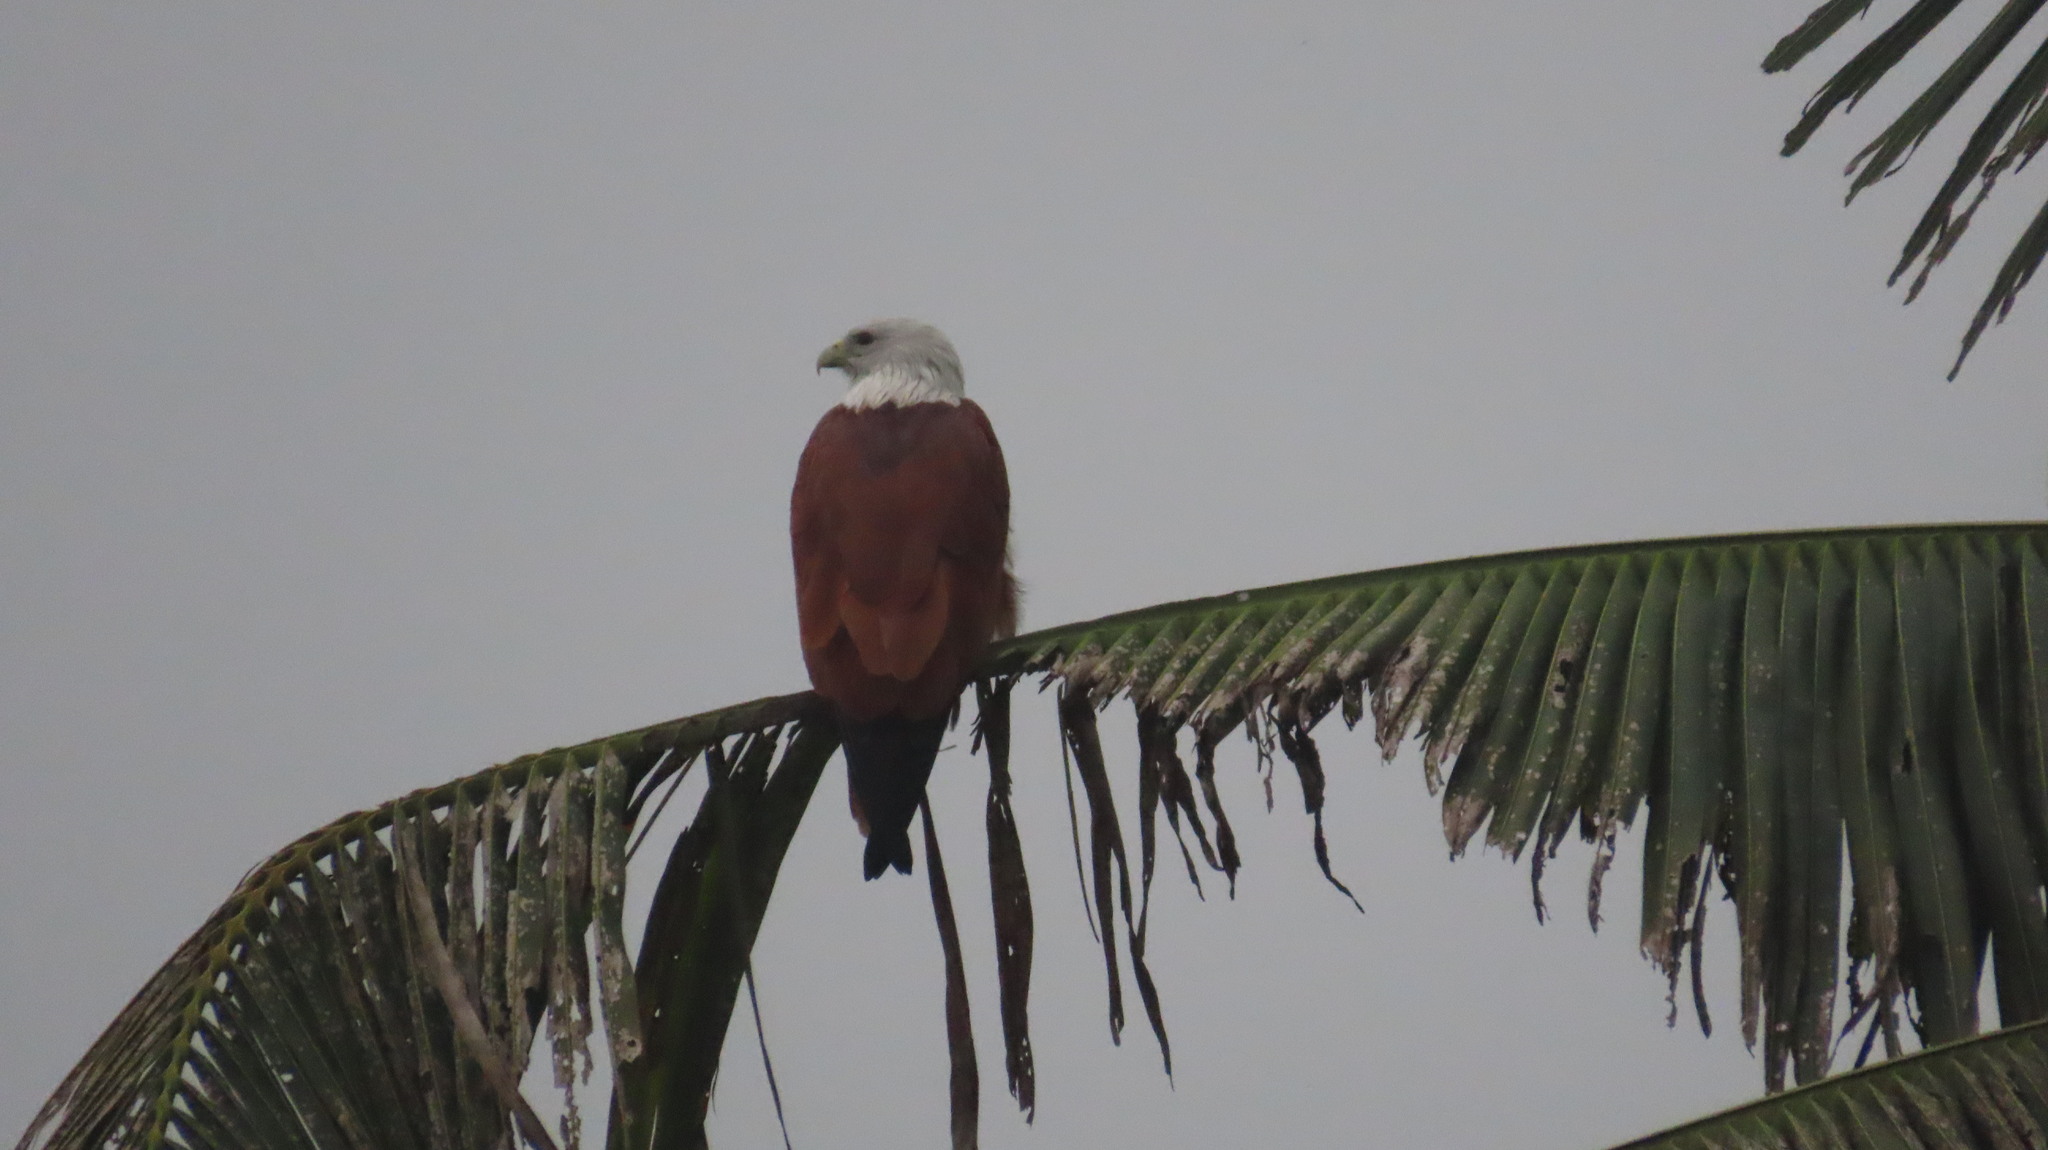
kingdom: Animalia
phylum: Chordata
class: Aves
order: Accipitriformes
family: Accipitridae
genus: Haliastur
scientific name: Haliastur indus
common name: Brahminy kite
